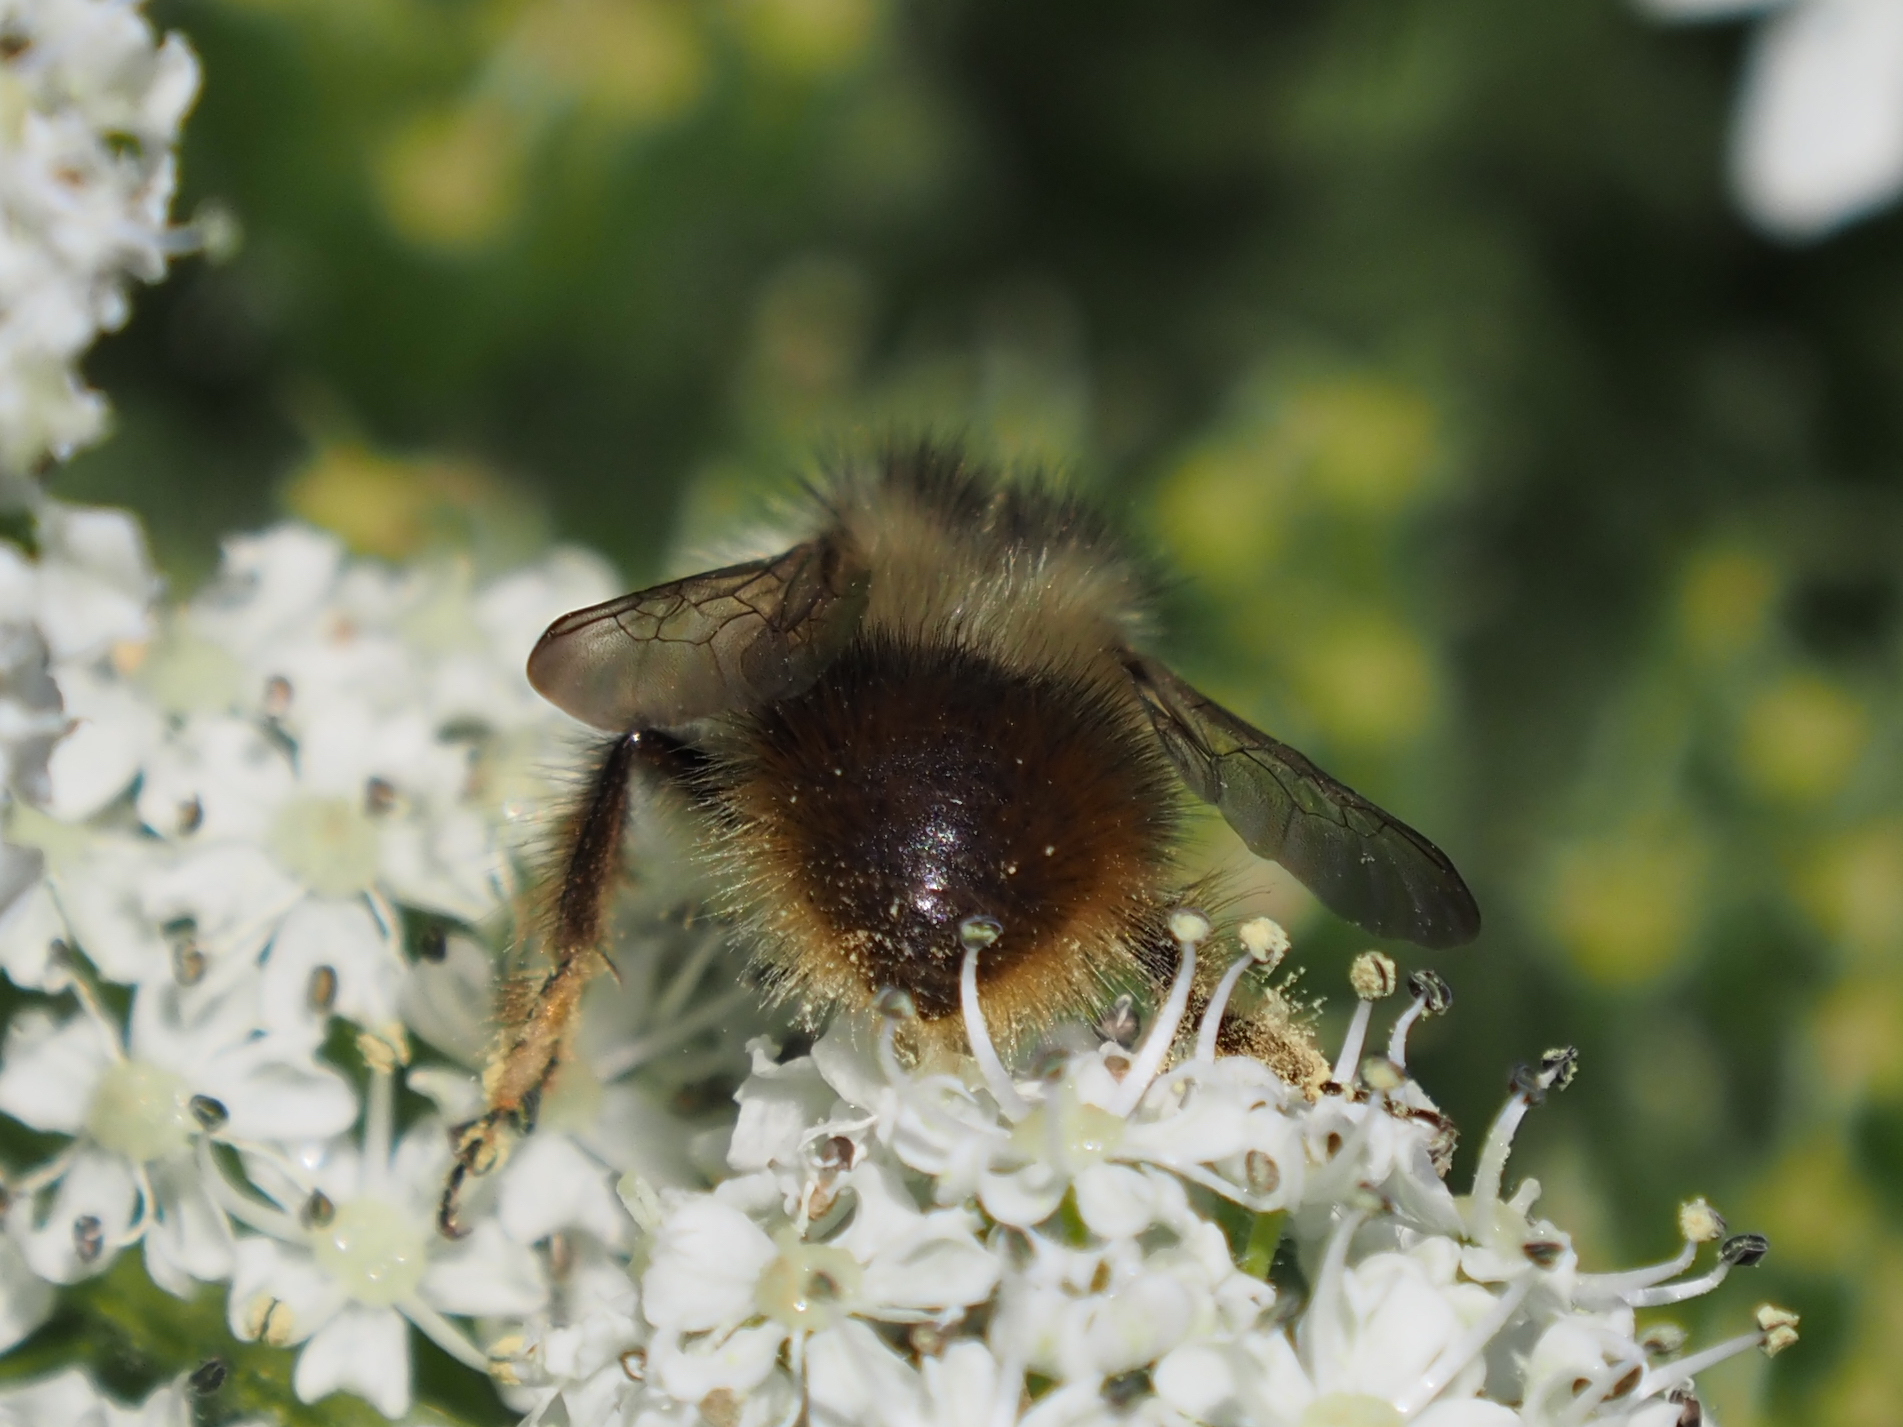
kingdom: Animalia
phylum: Arthropoda
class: Insecta
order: Hymenoptera
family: Apidae
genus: Bombus
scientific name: Bombus mixtus
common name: Fuzzy-horned bumble bee
